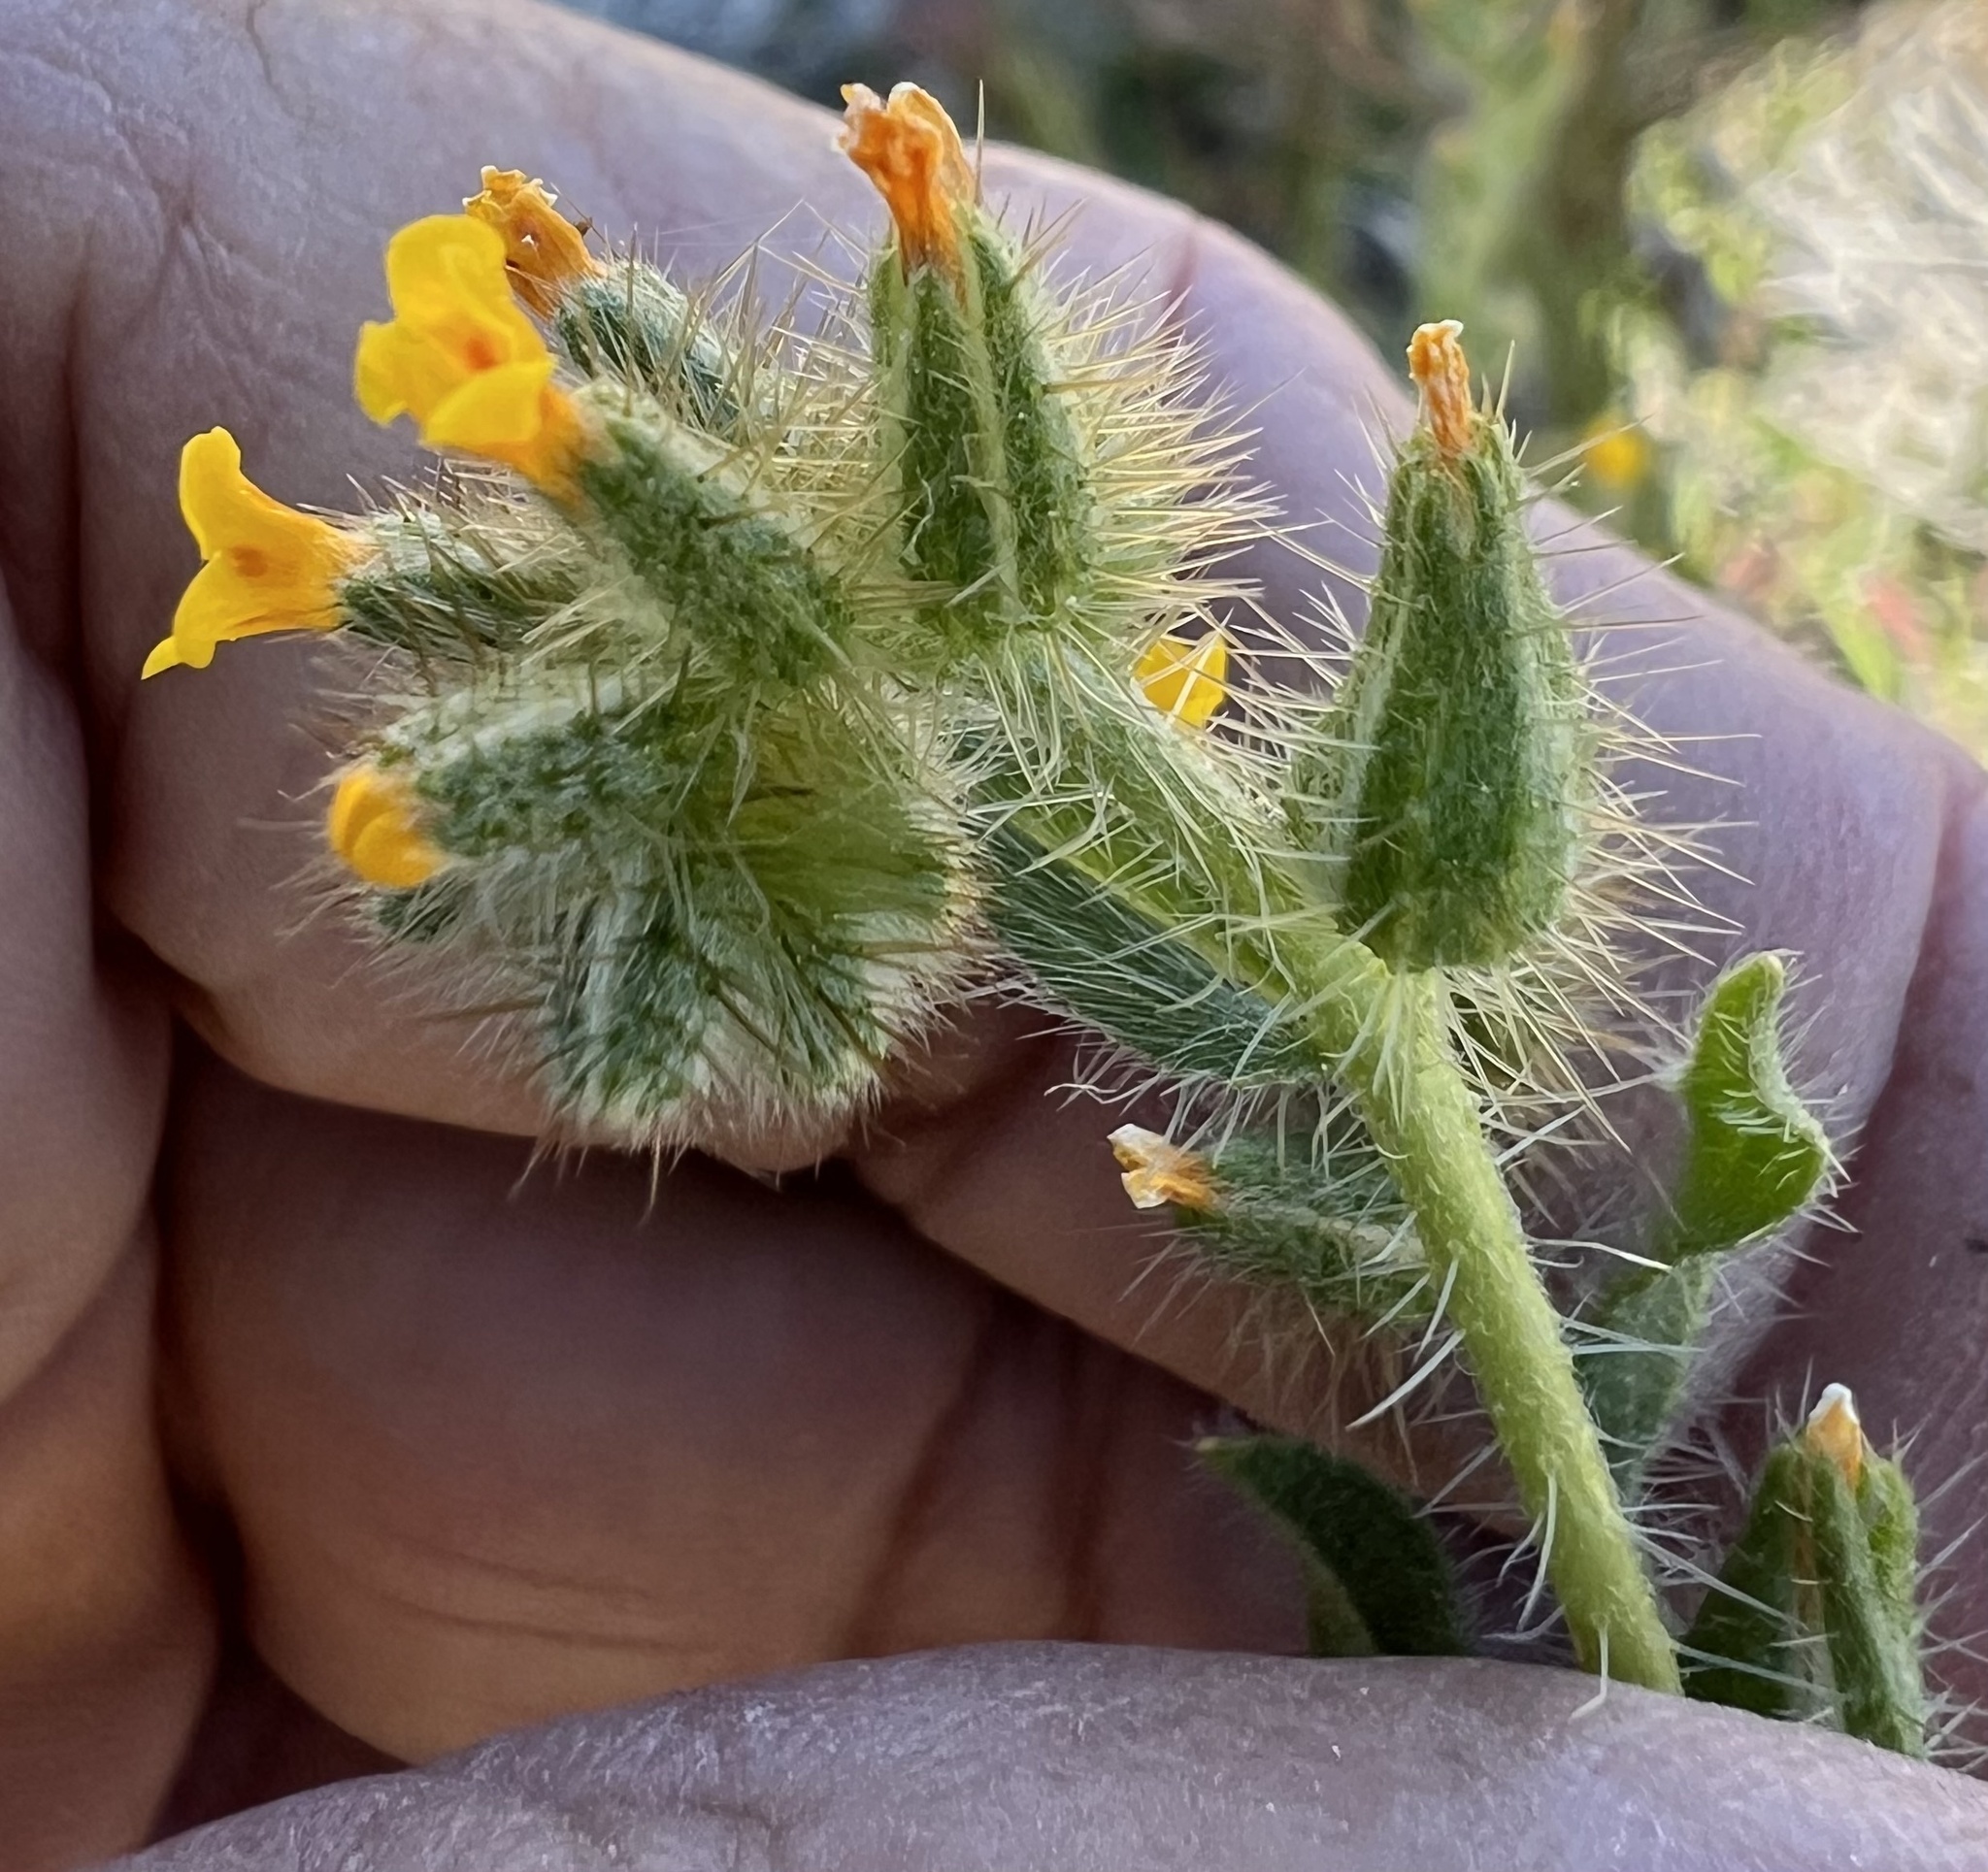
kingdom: Plantae
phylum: Tracheophyta
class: Magnoliopsida
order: Boraginales
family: Boraginaceae
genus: Amsinckia
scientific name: Amsinckia tessellata
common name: Tessellate fiddleneck
